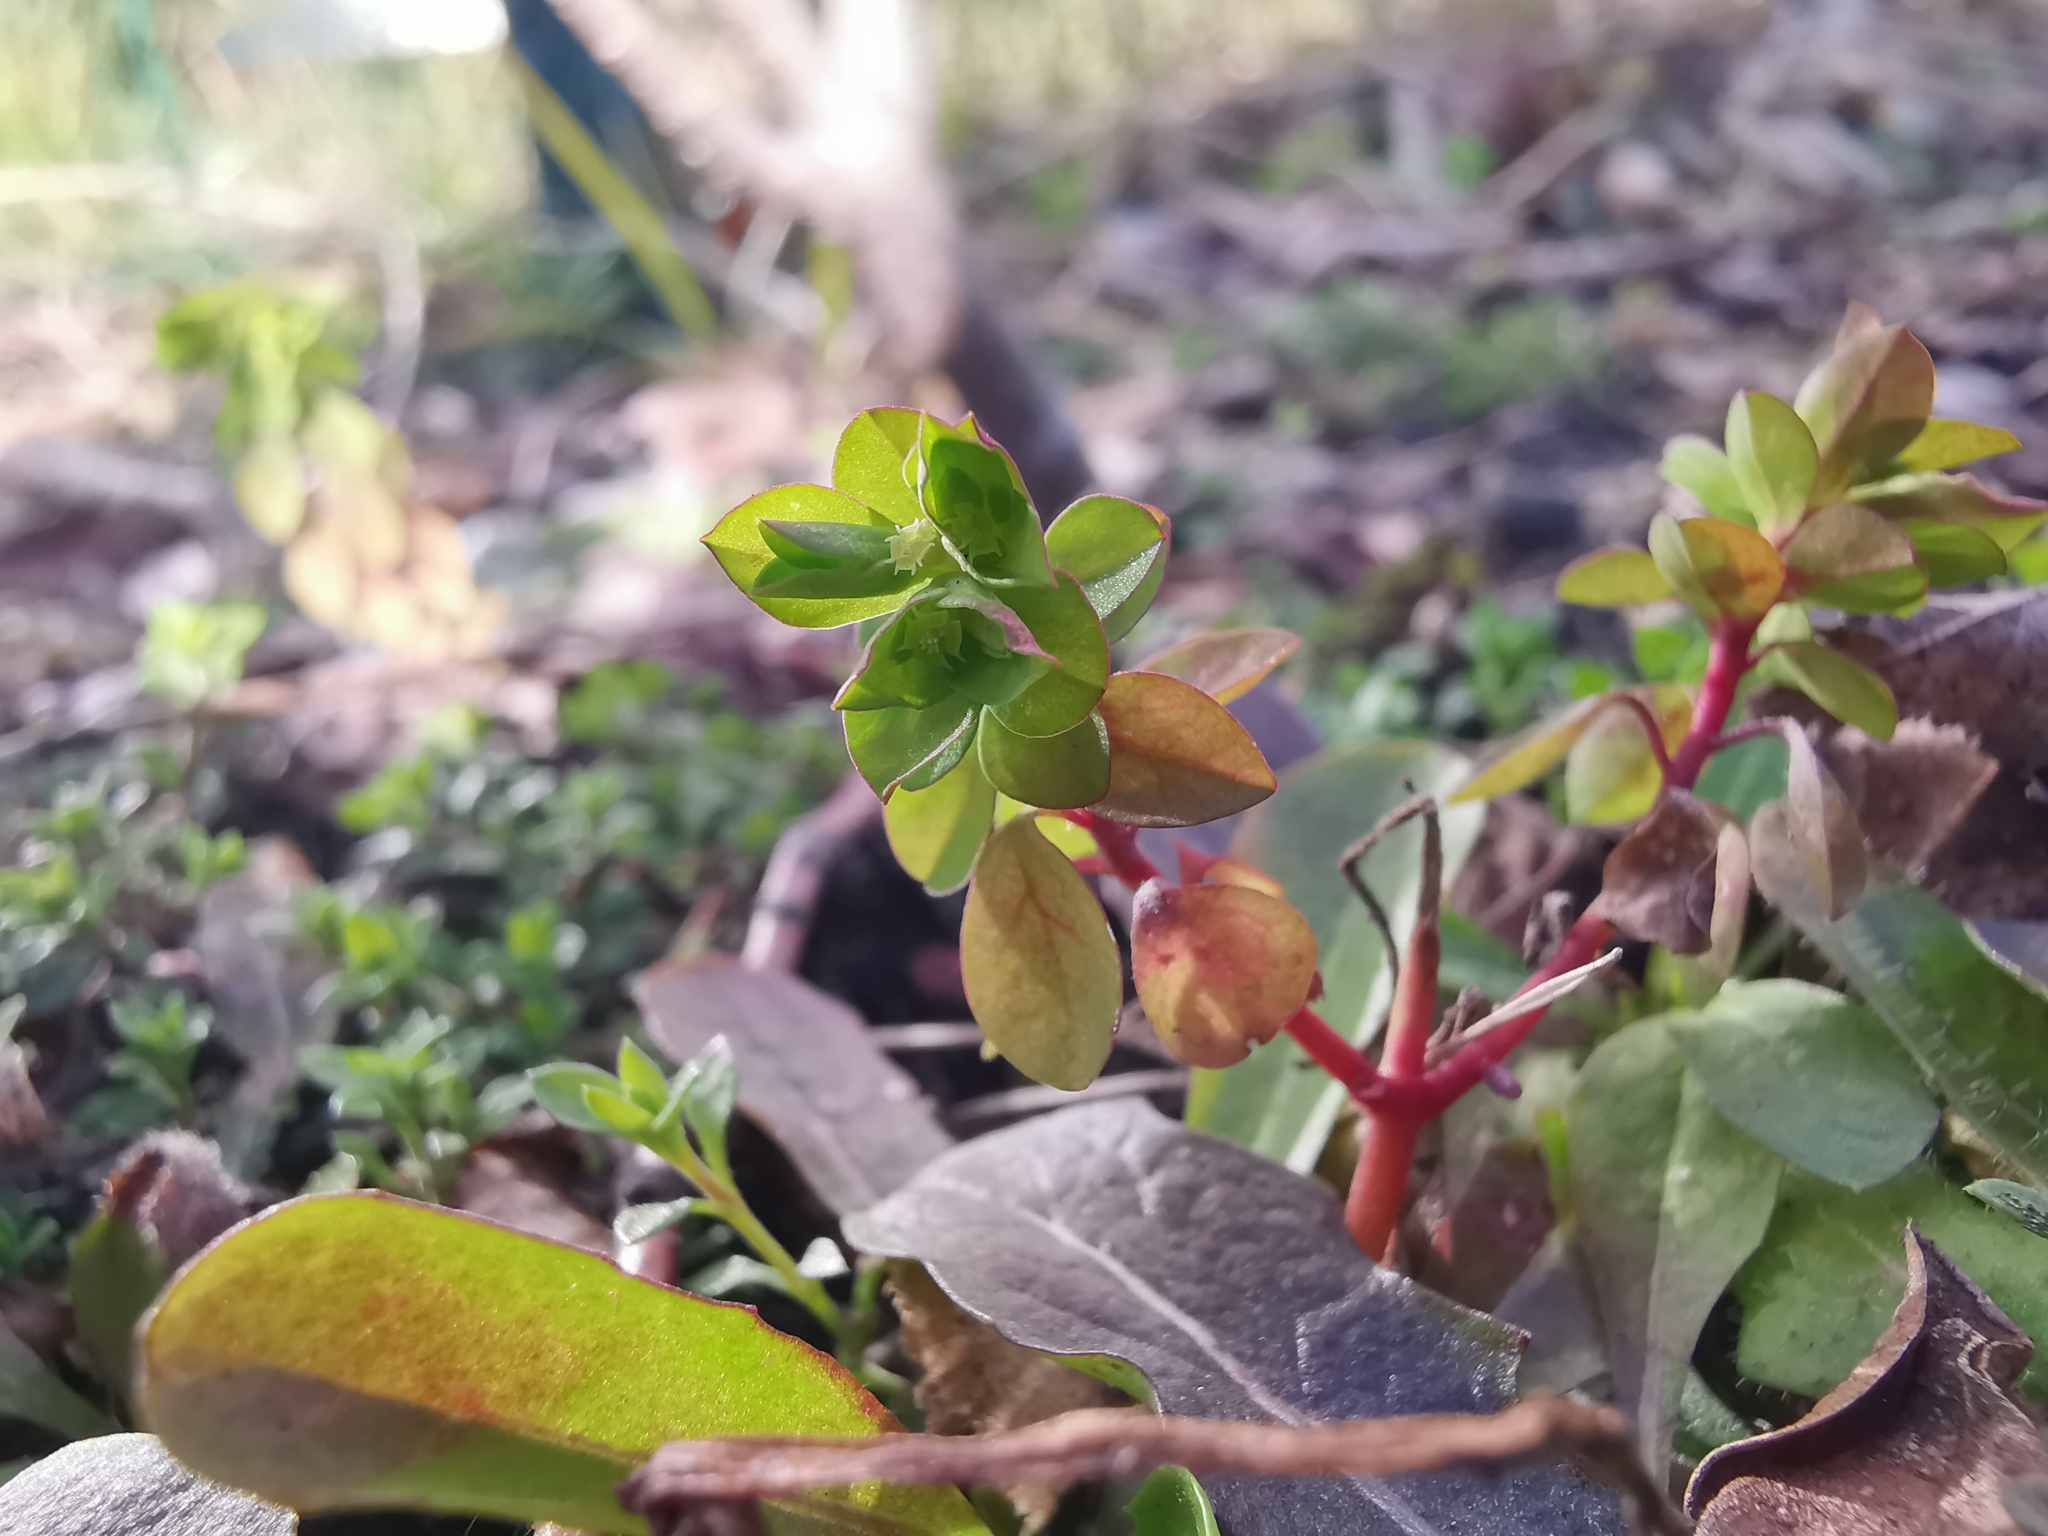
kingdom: Plantae
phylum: Tracheophyta
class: Magnoliopsida
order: Malpighiales
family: Euphorbiaceae
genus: Euphorbia
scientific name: Euphorbia peplus
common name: Petty spurge
